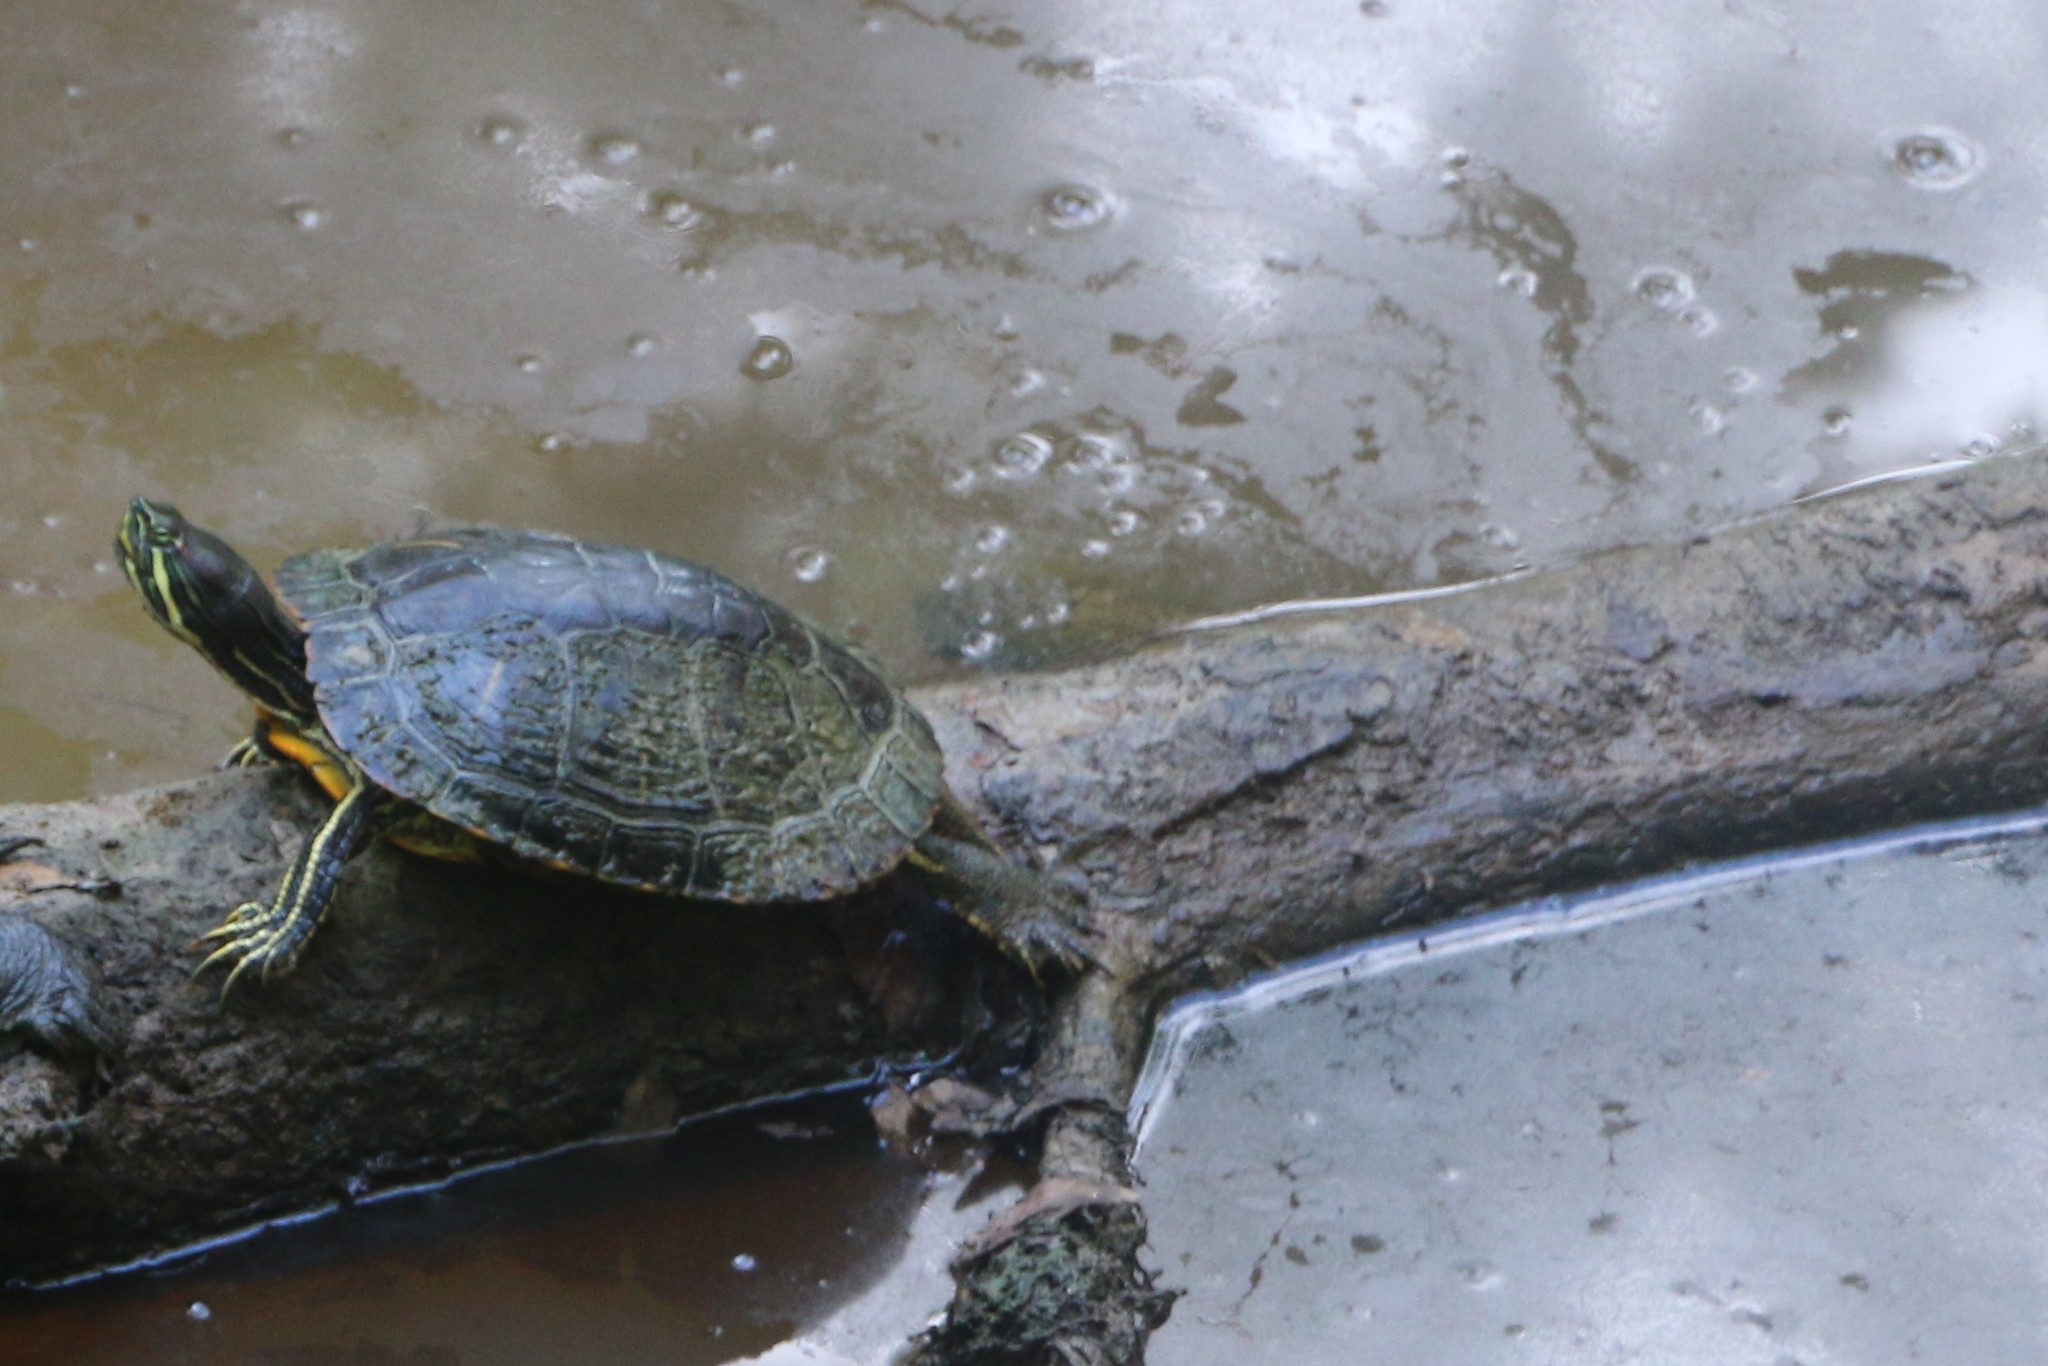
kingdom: Animalia
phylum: Chordata
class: Testudines
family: Emydidae
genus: Trachemys
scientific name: Trachemys scripta
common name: Slider
